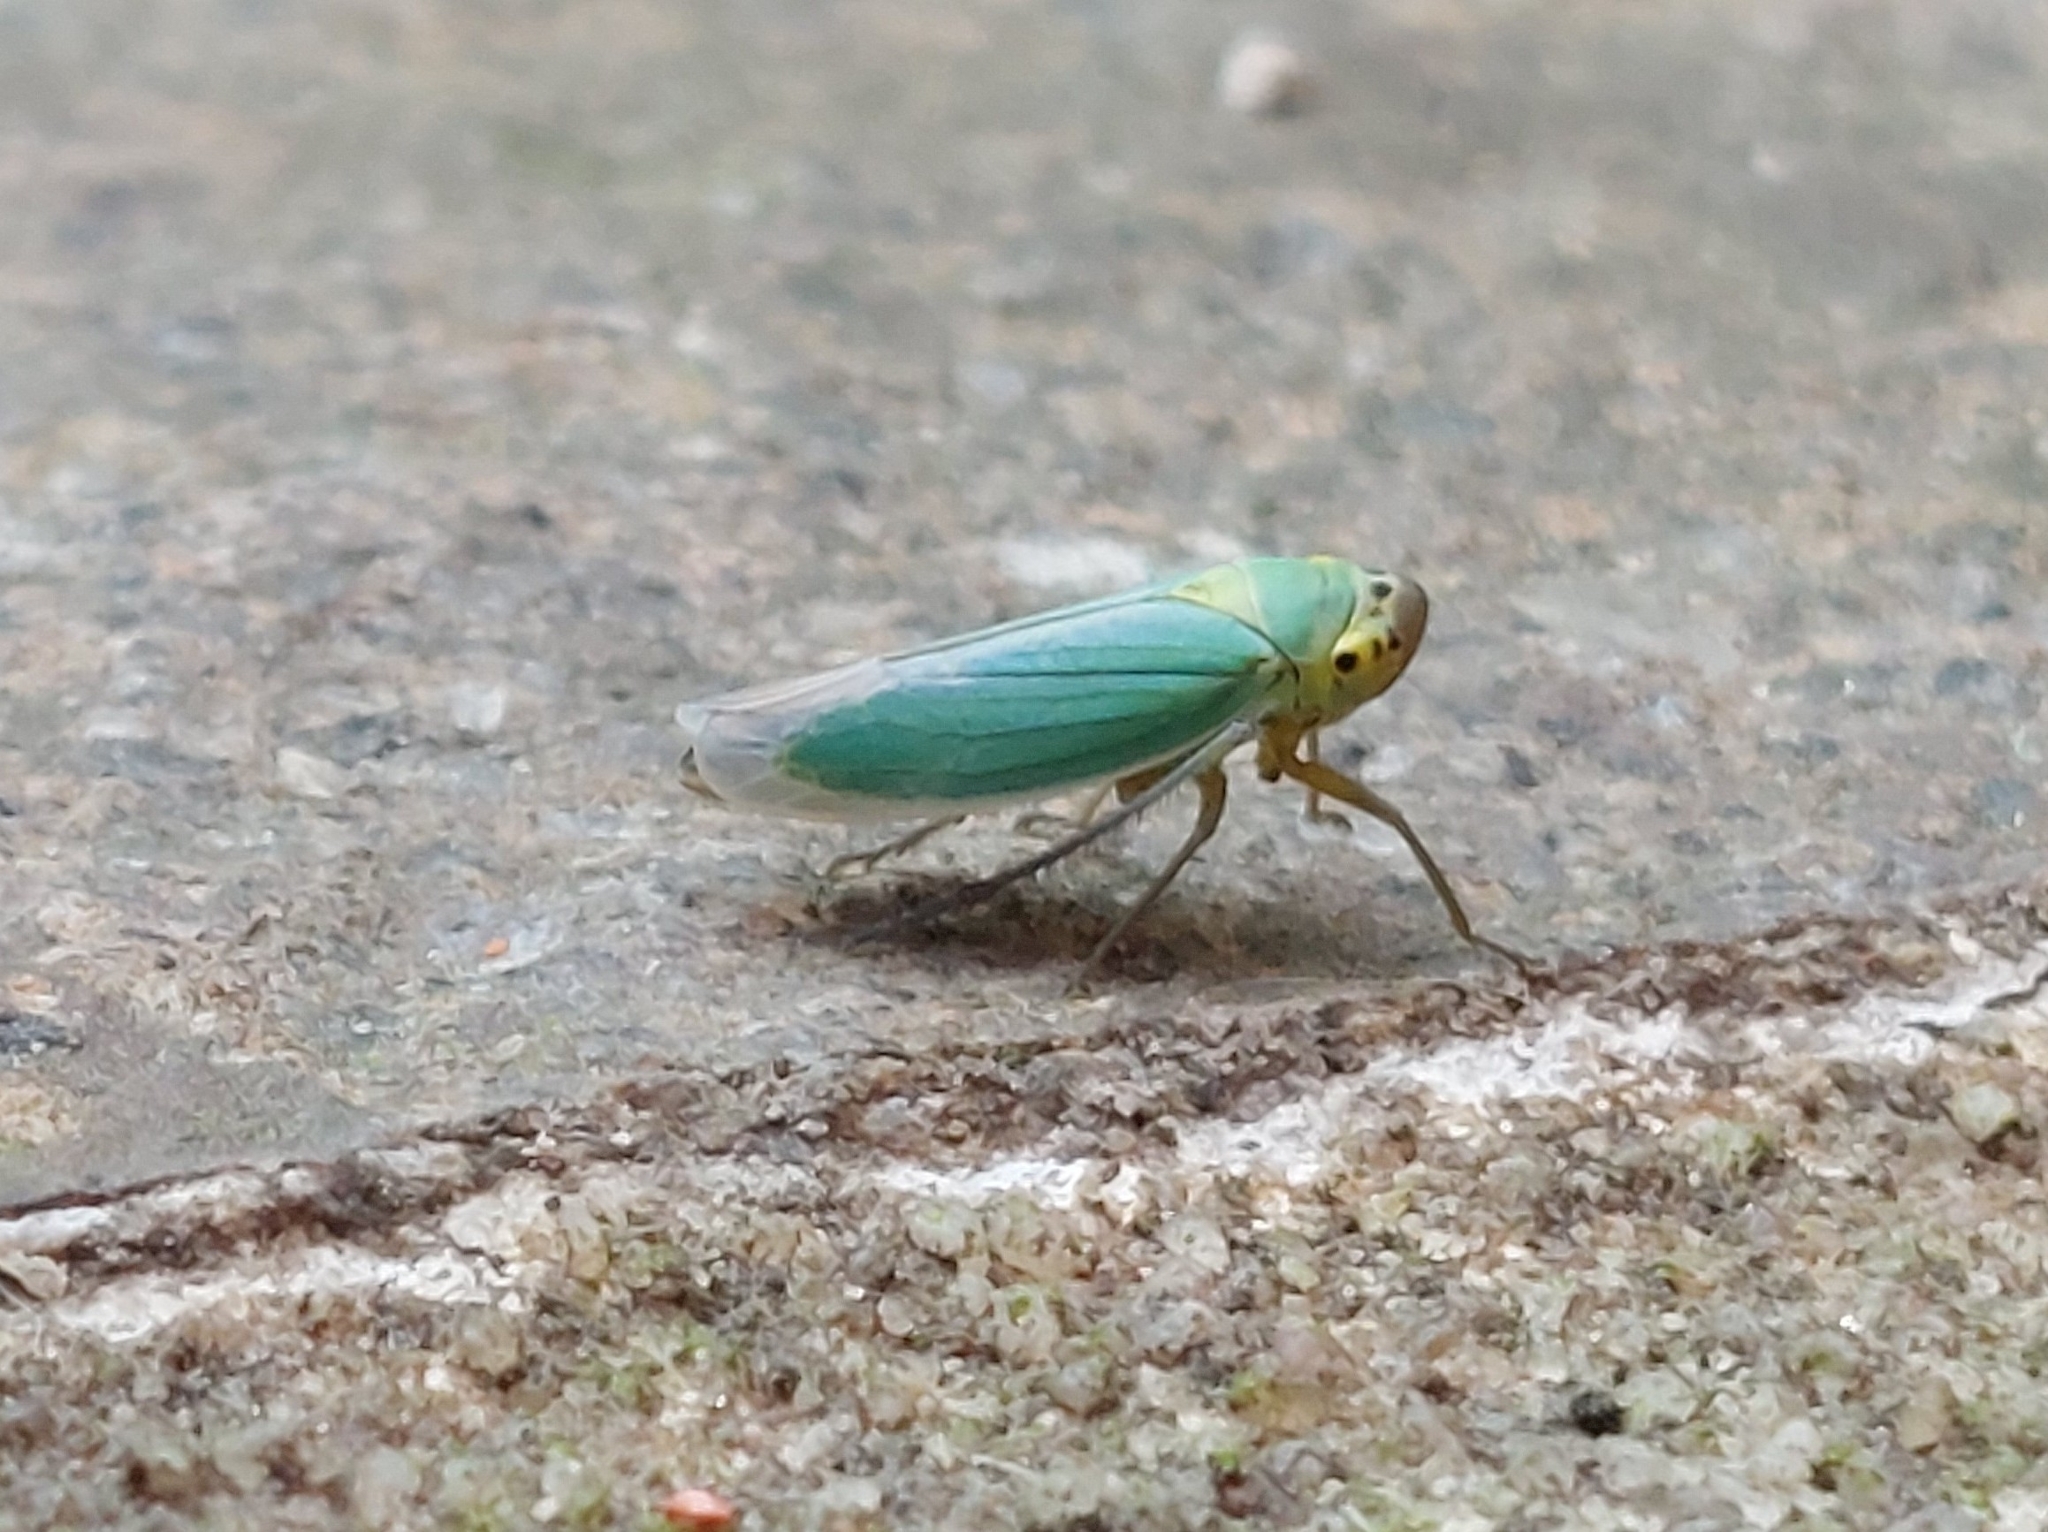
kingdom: Animalia
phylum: Arthropoda
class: Insecta
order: Hemiptera
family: Cicadellidae
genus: Cicadella
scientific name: Cicadella viridis
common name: Leafhopper
